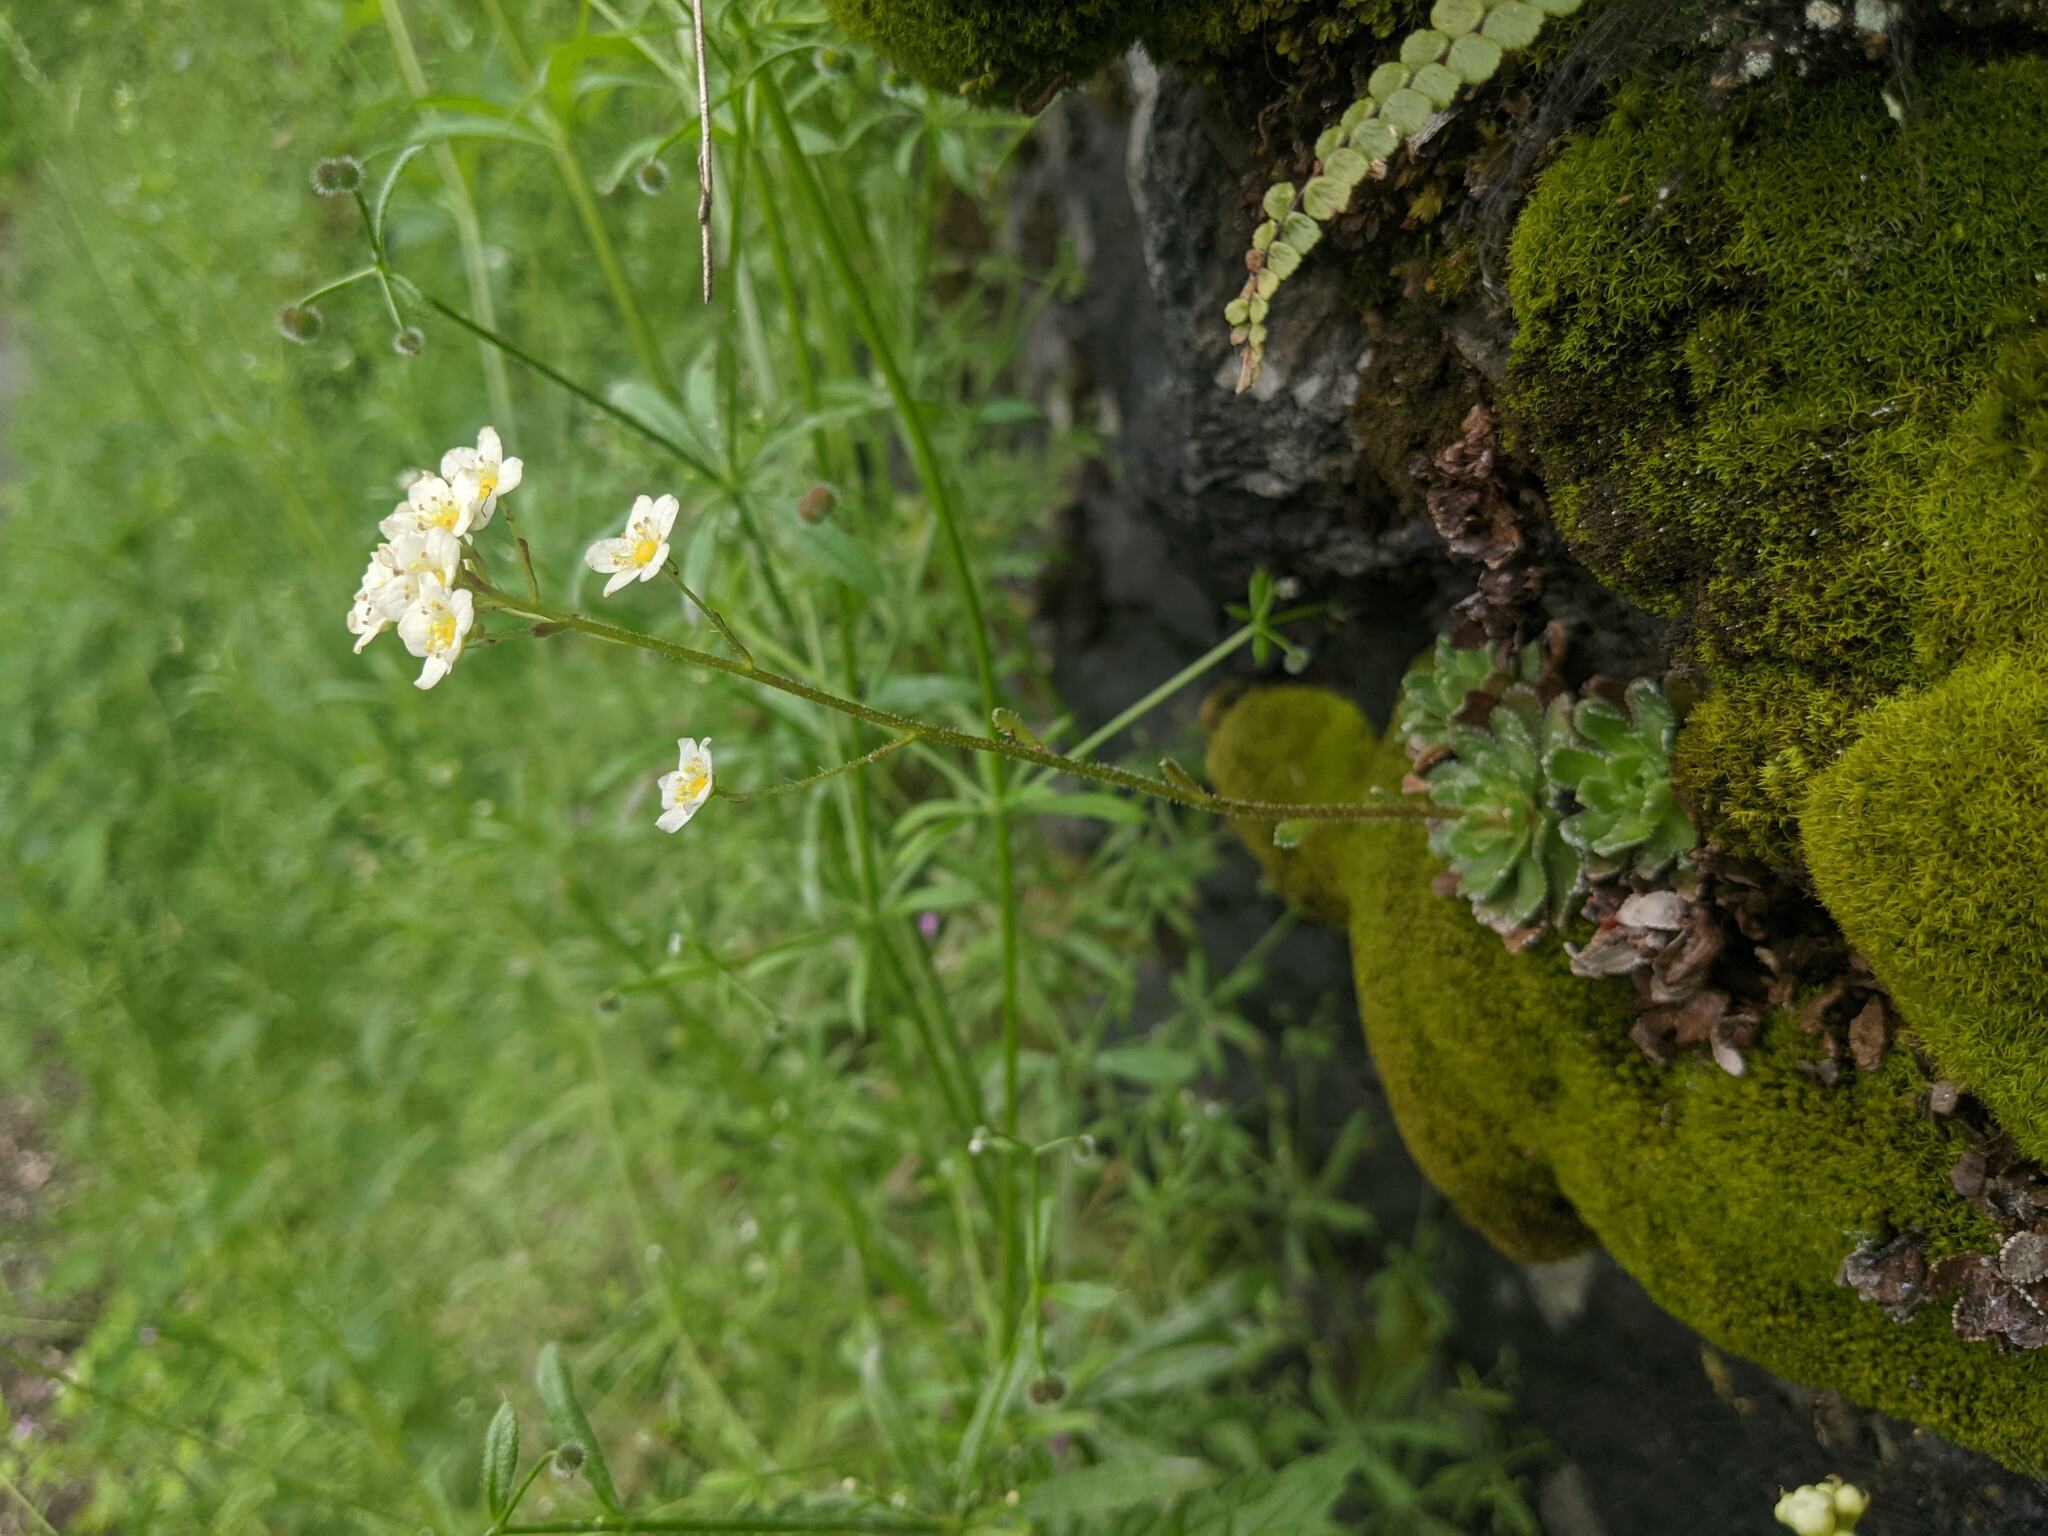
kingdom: Plantae
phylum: Tracheophyta
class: Magnoliopsida
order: Saxifragales
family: Saxifragaceae
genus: Saxifraga
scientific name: Saxifraga paniculata
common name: Livelong saxifrage
